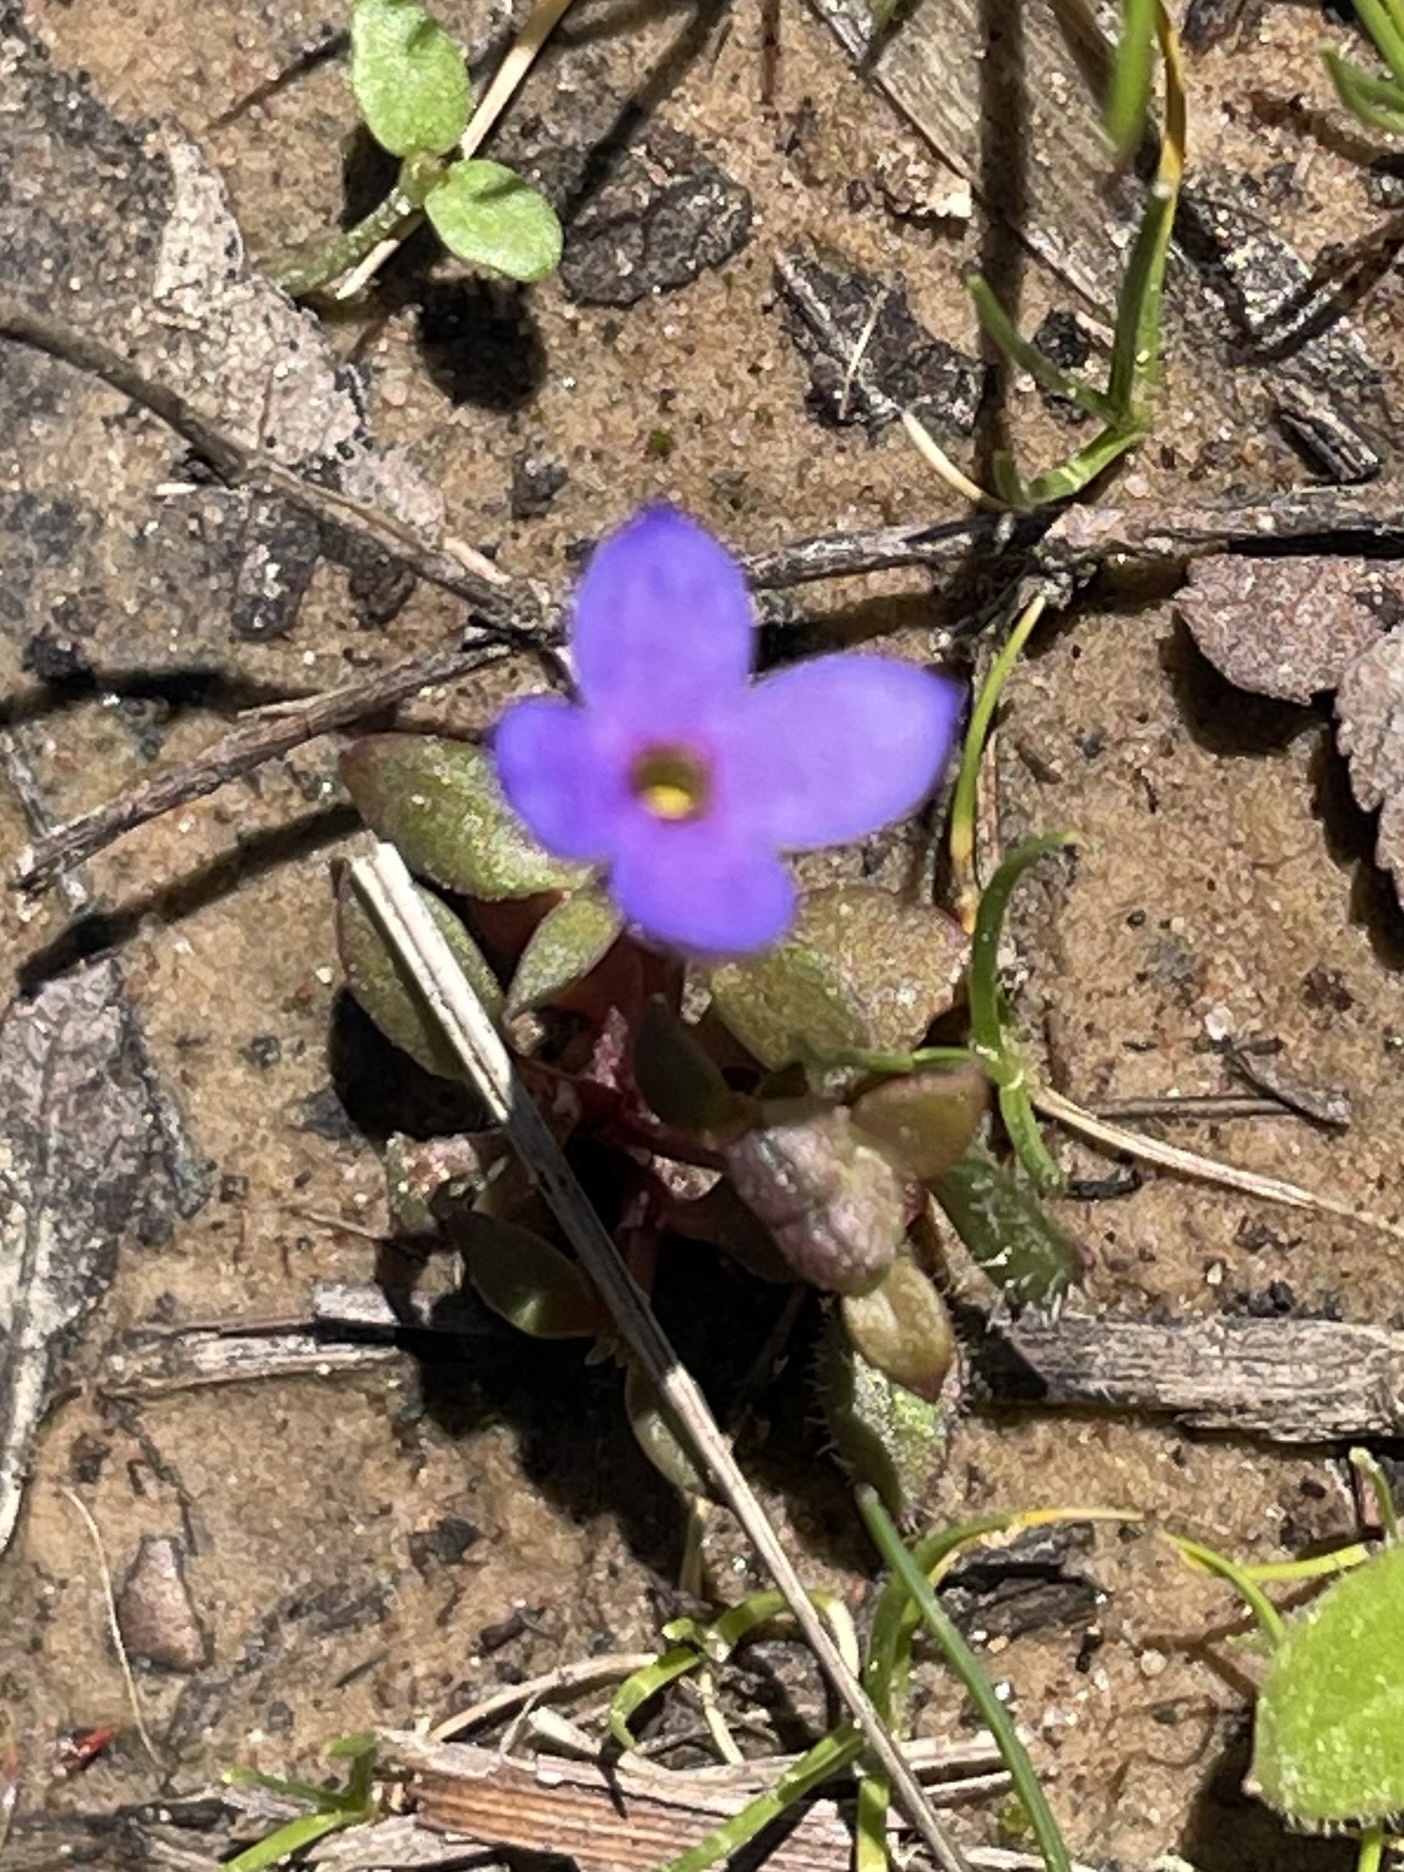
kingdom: Plantae
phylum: Tracheophyta
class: Magnoliopsida
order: Gentianales
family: Rubiaceae
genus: Houstonia
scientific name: Houstonia pusilla
